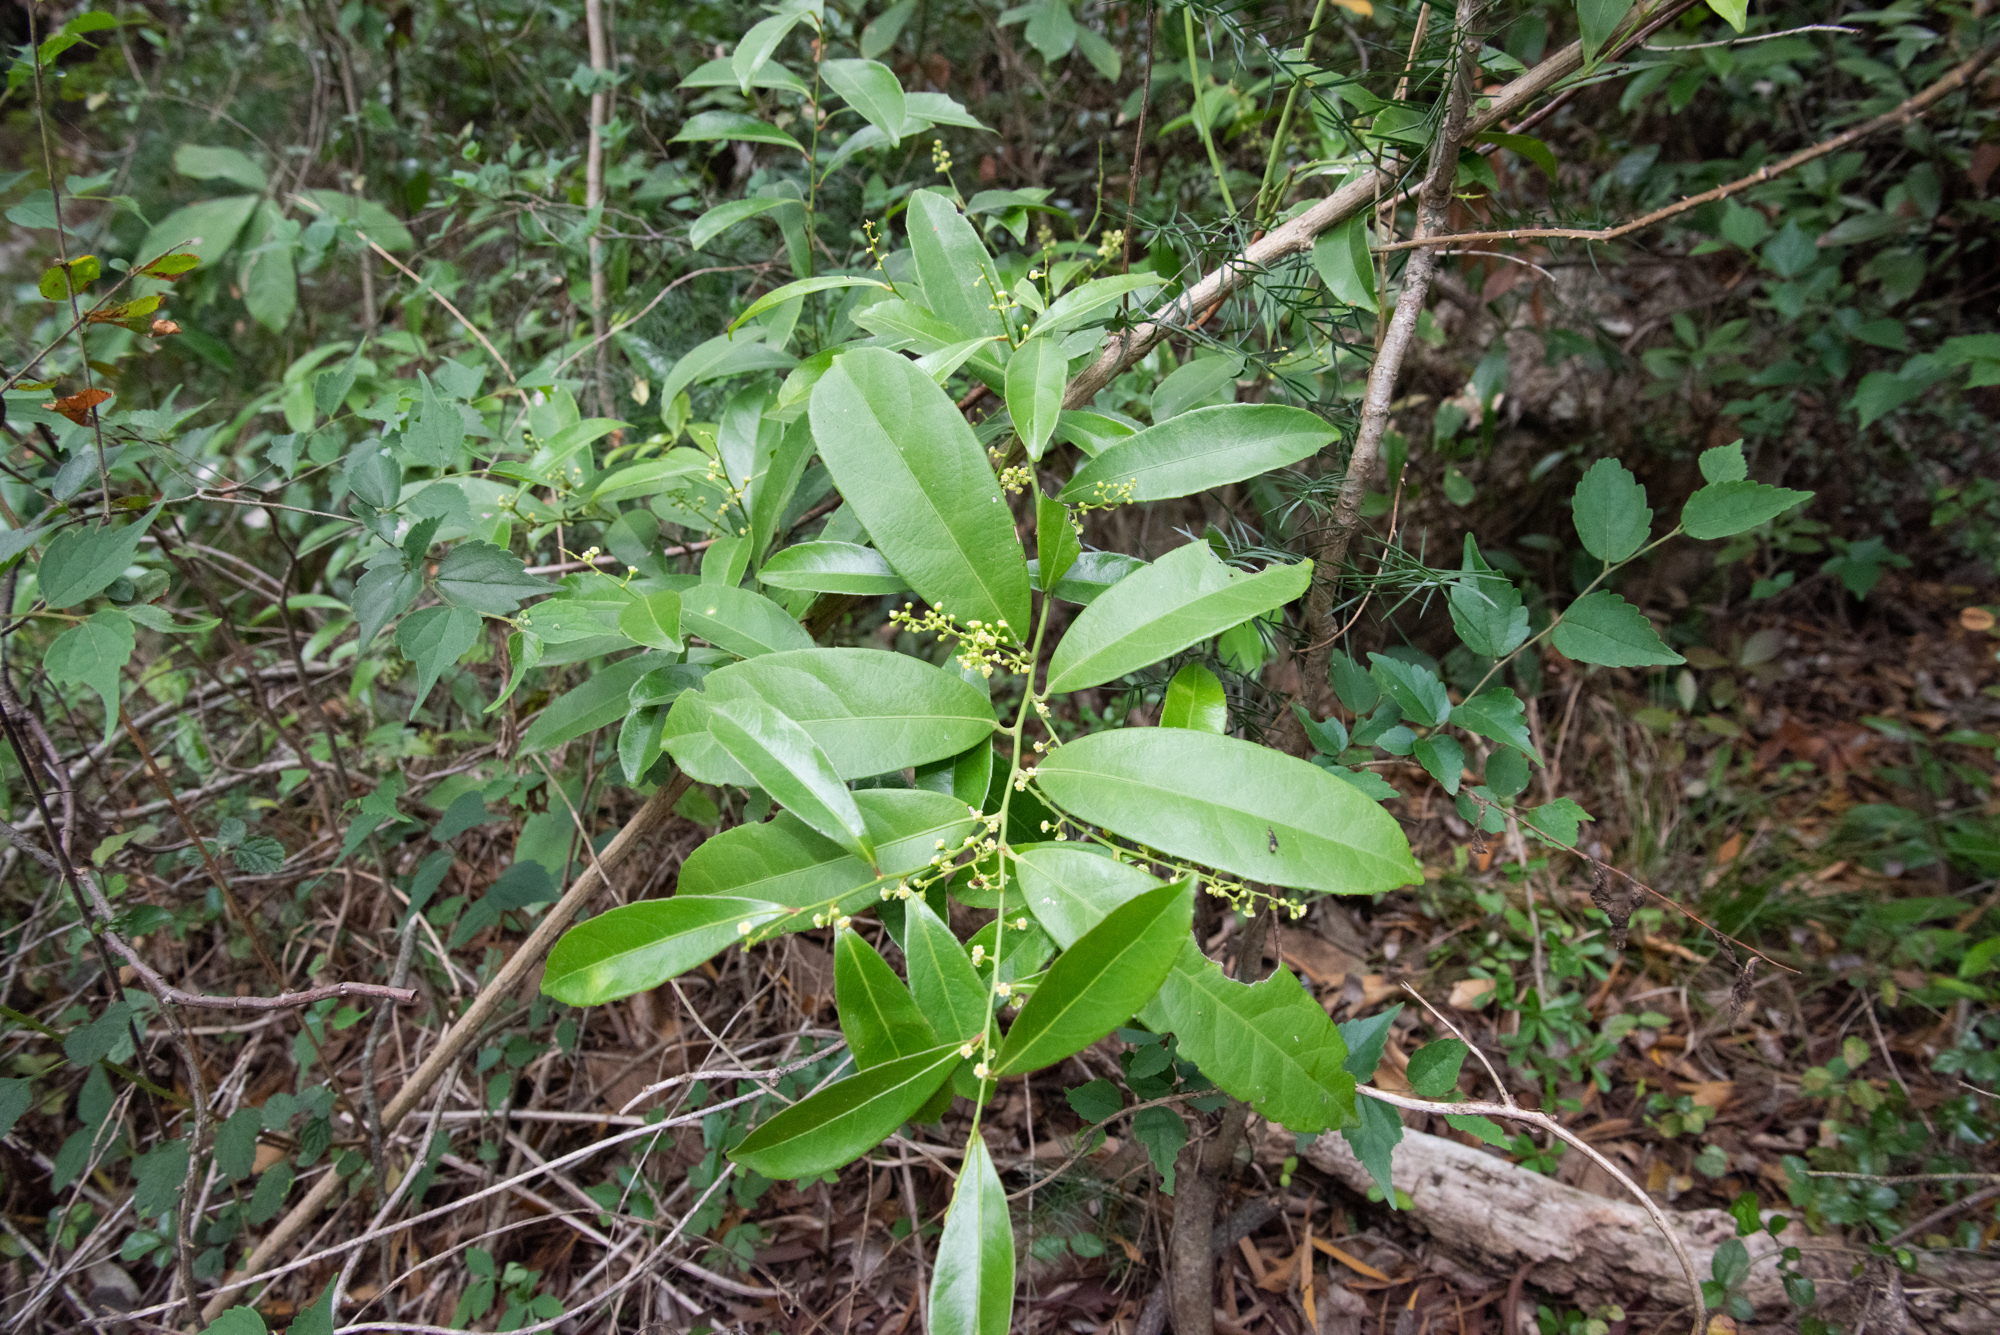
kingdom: Plantae
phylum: Tracheophyta
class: Magnoliopsida
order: Celastrales
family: Celastraceae
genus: Celastrus
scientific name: Celastrus hindsii
